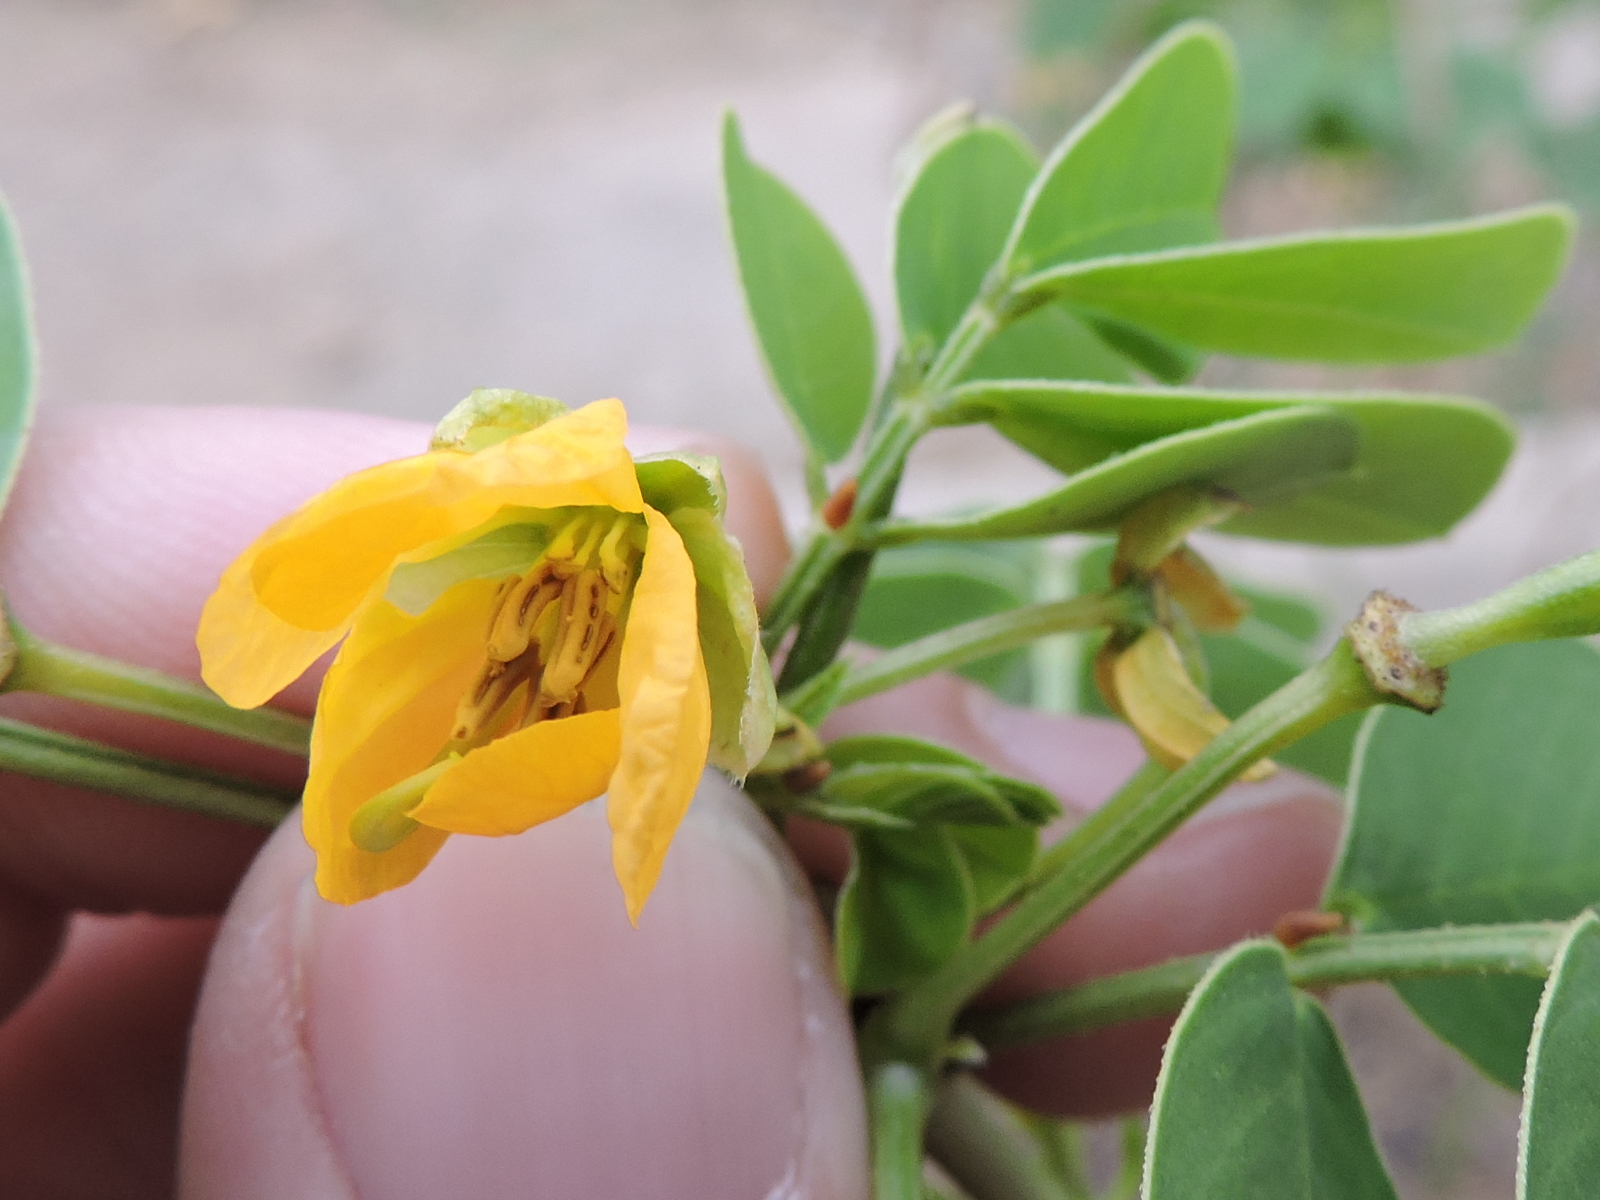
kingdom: Plantae
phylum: Tracheophyta
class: Magnoliopsida
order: Fabales
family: Fabaceae
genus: Senna
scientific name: Senna obtusifolia
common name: Java-bean
